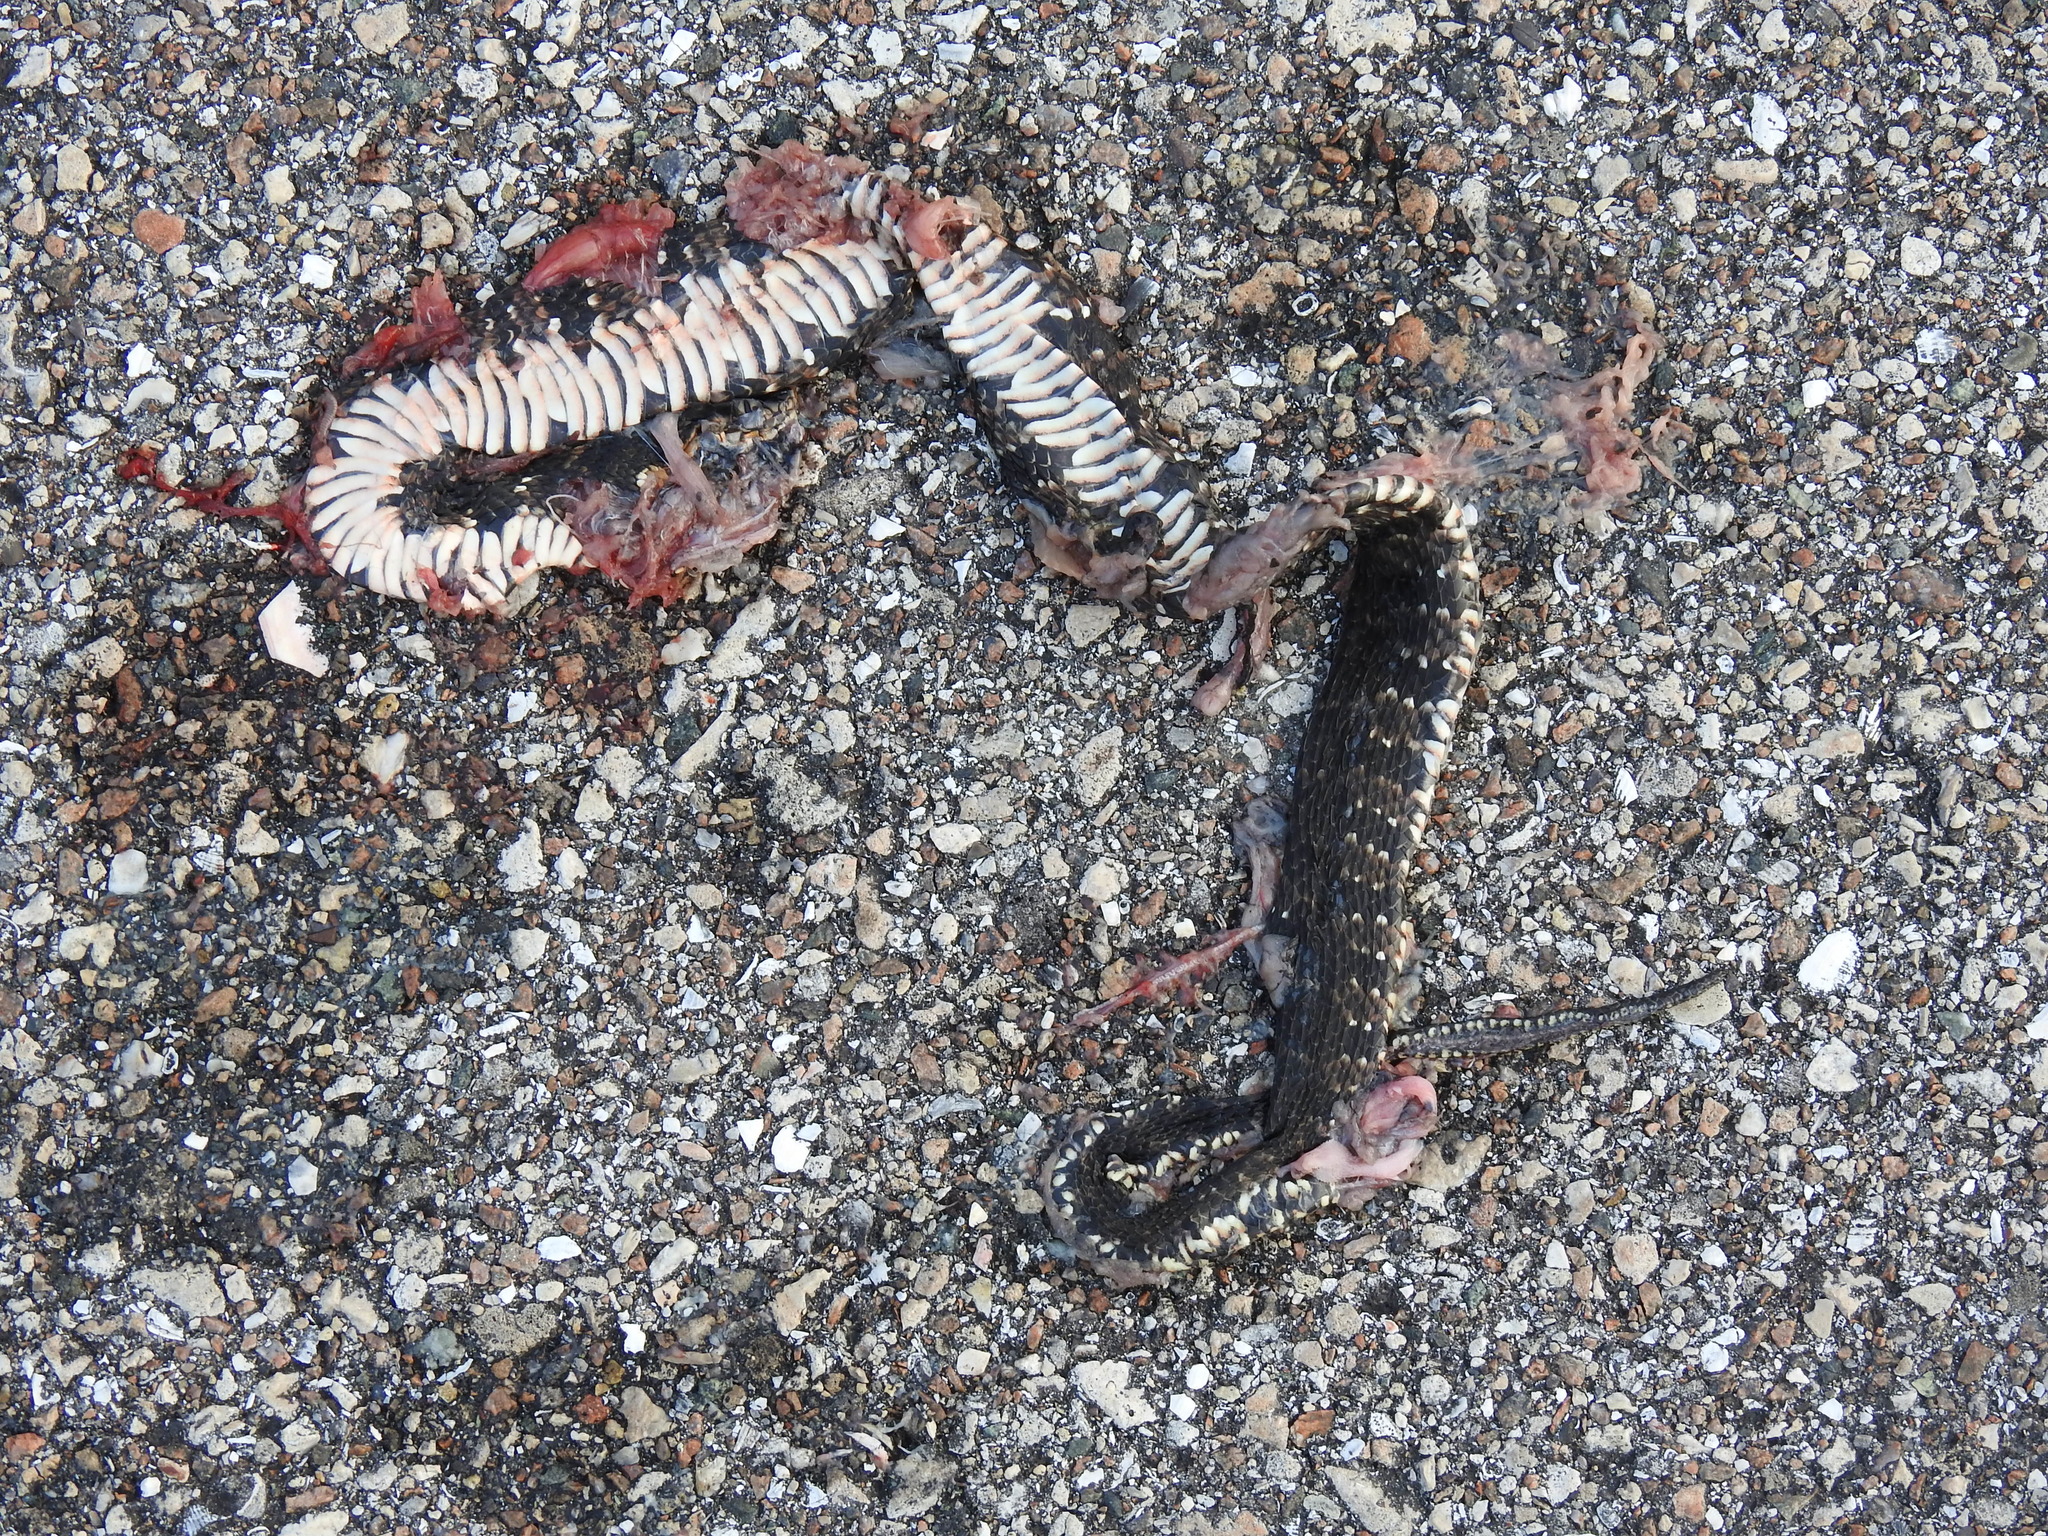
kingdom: Animalia
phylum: Chordata
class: Squamata
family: Colubridae
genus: Nerodia
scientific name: Nerodia fasciata
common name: Southern water snake
